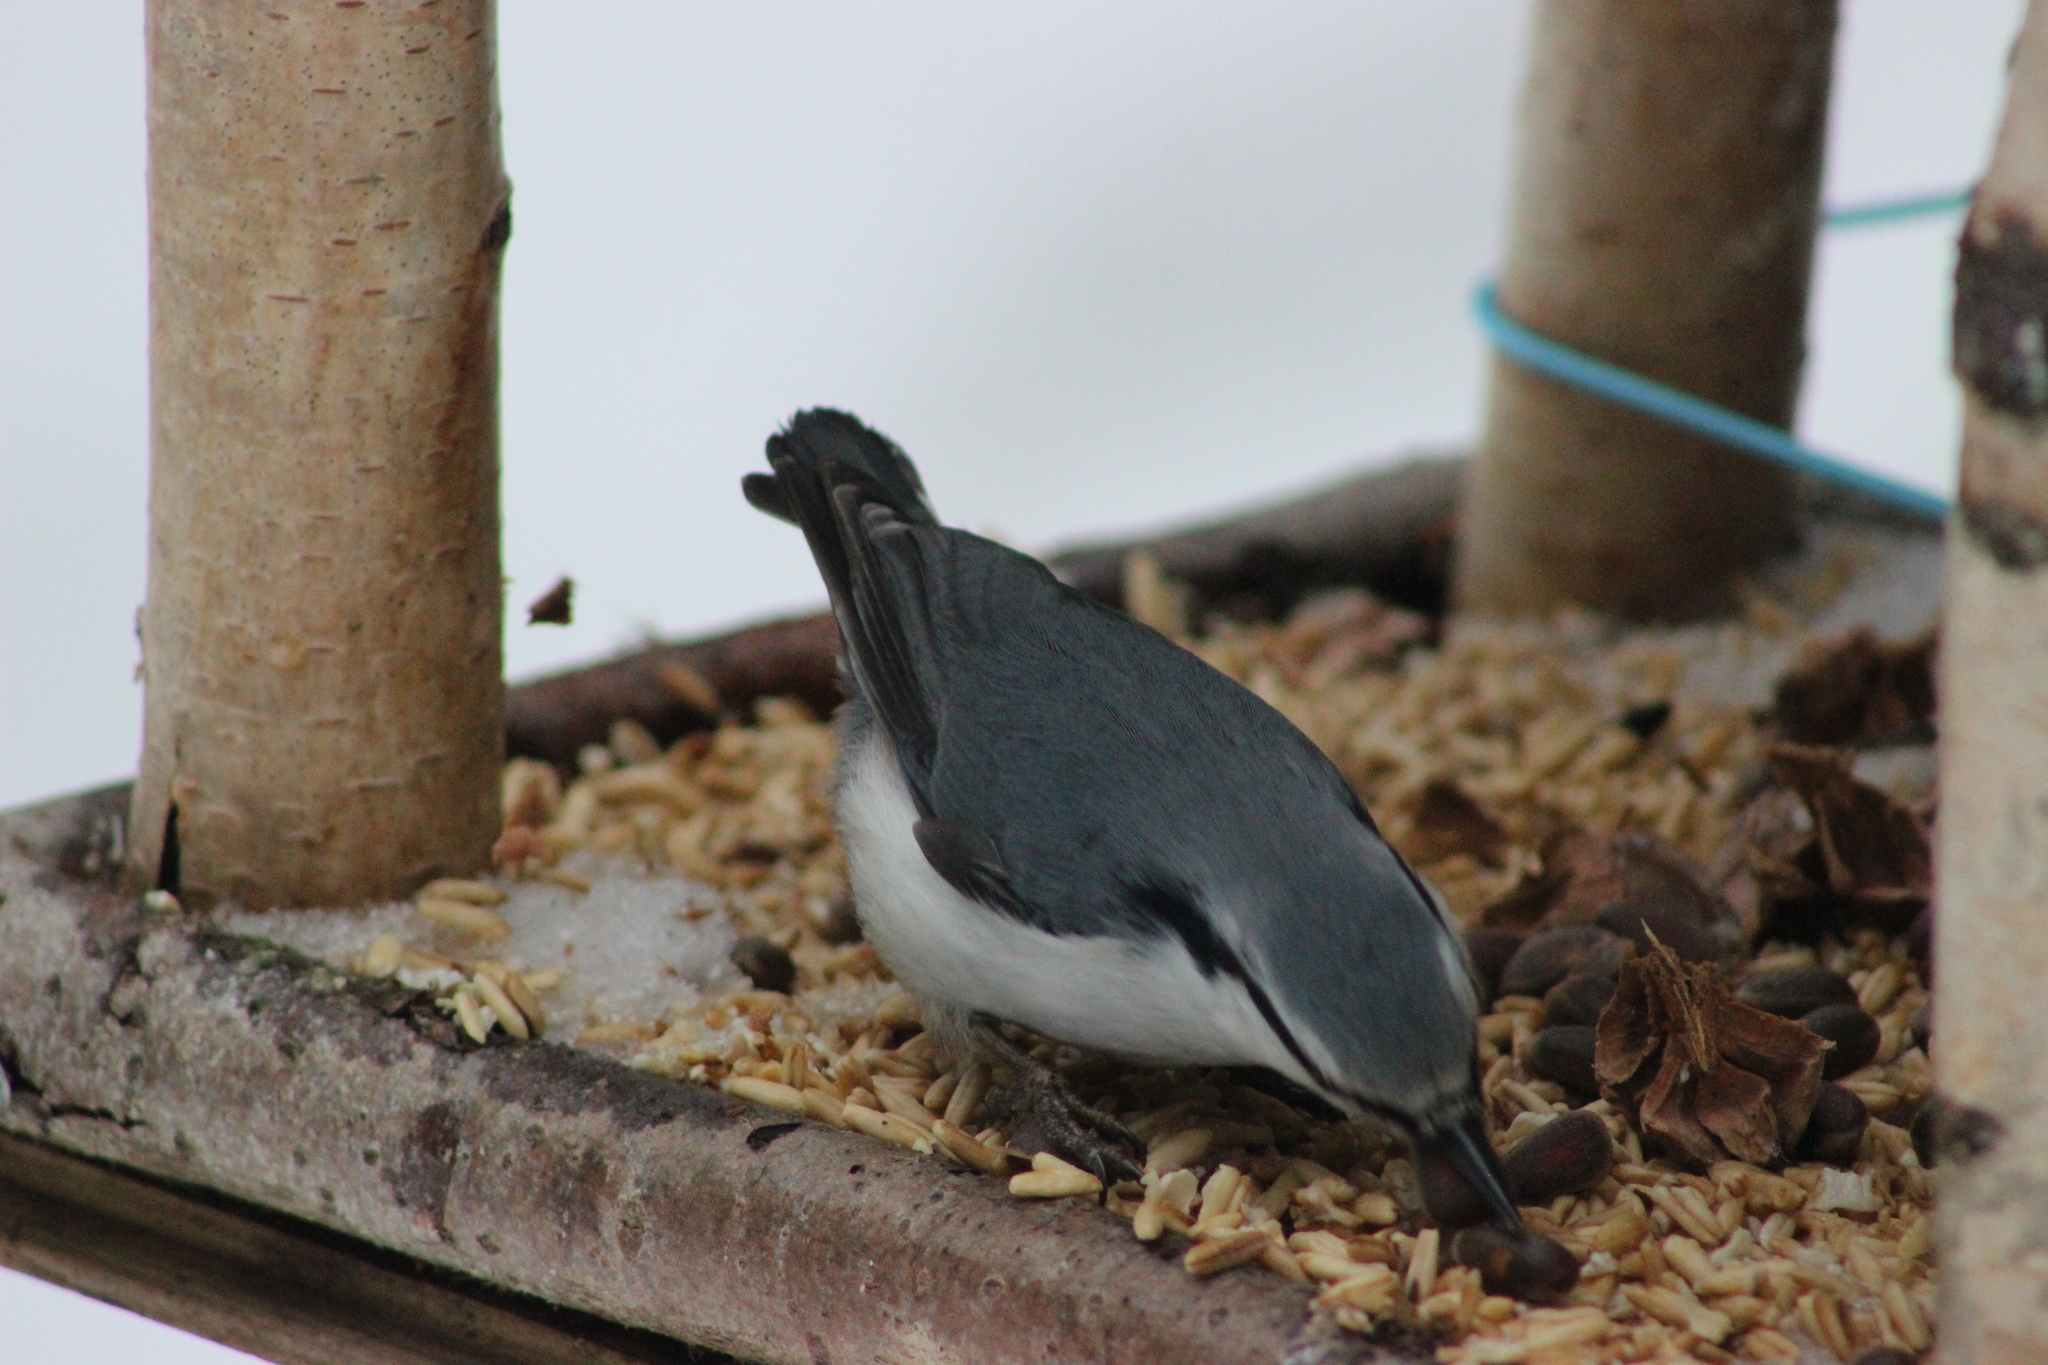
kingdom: Animalia
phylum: Chordata
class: Aves
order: Passeriformes
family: Sittidae
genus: Sitta
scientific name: Sitta europaea
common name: Eurasian nuthatch
